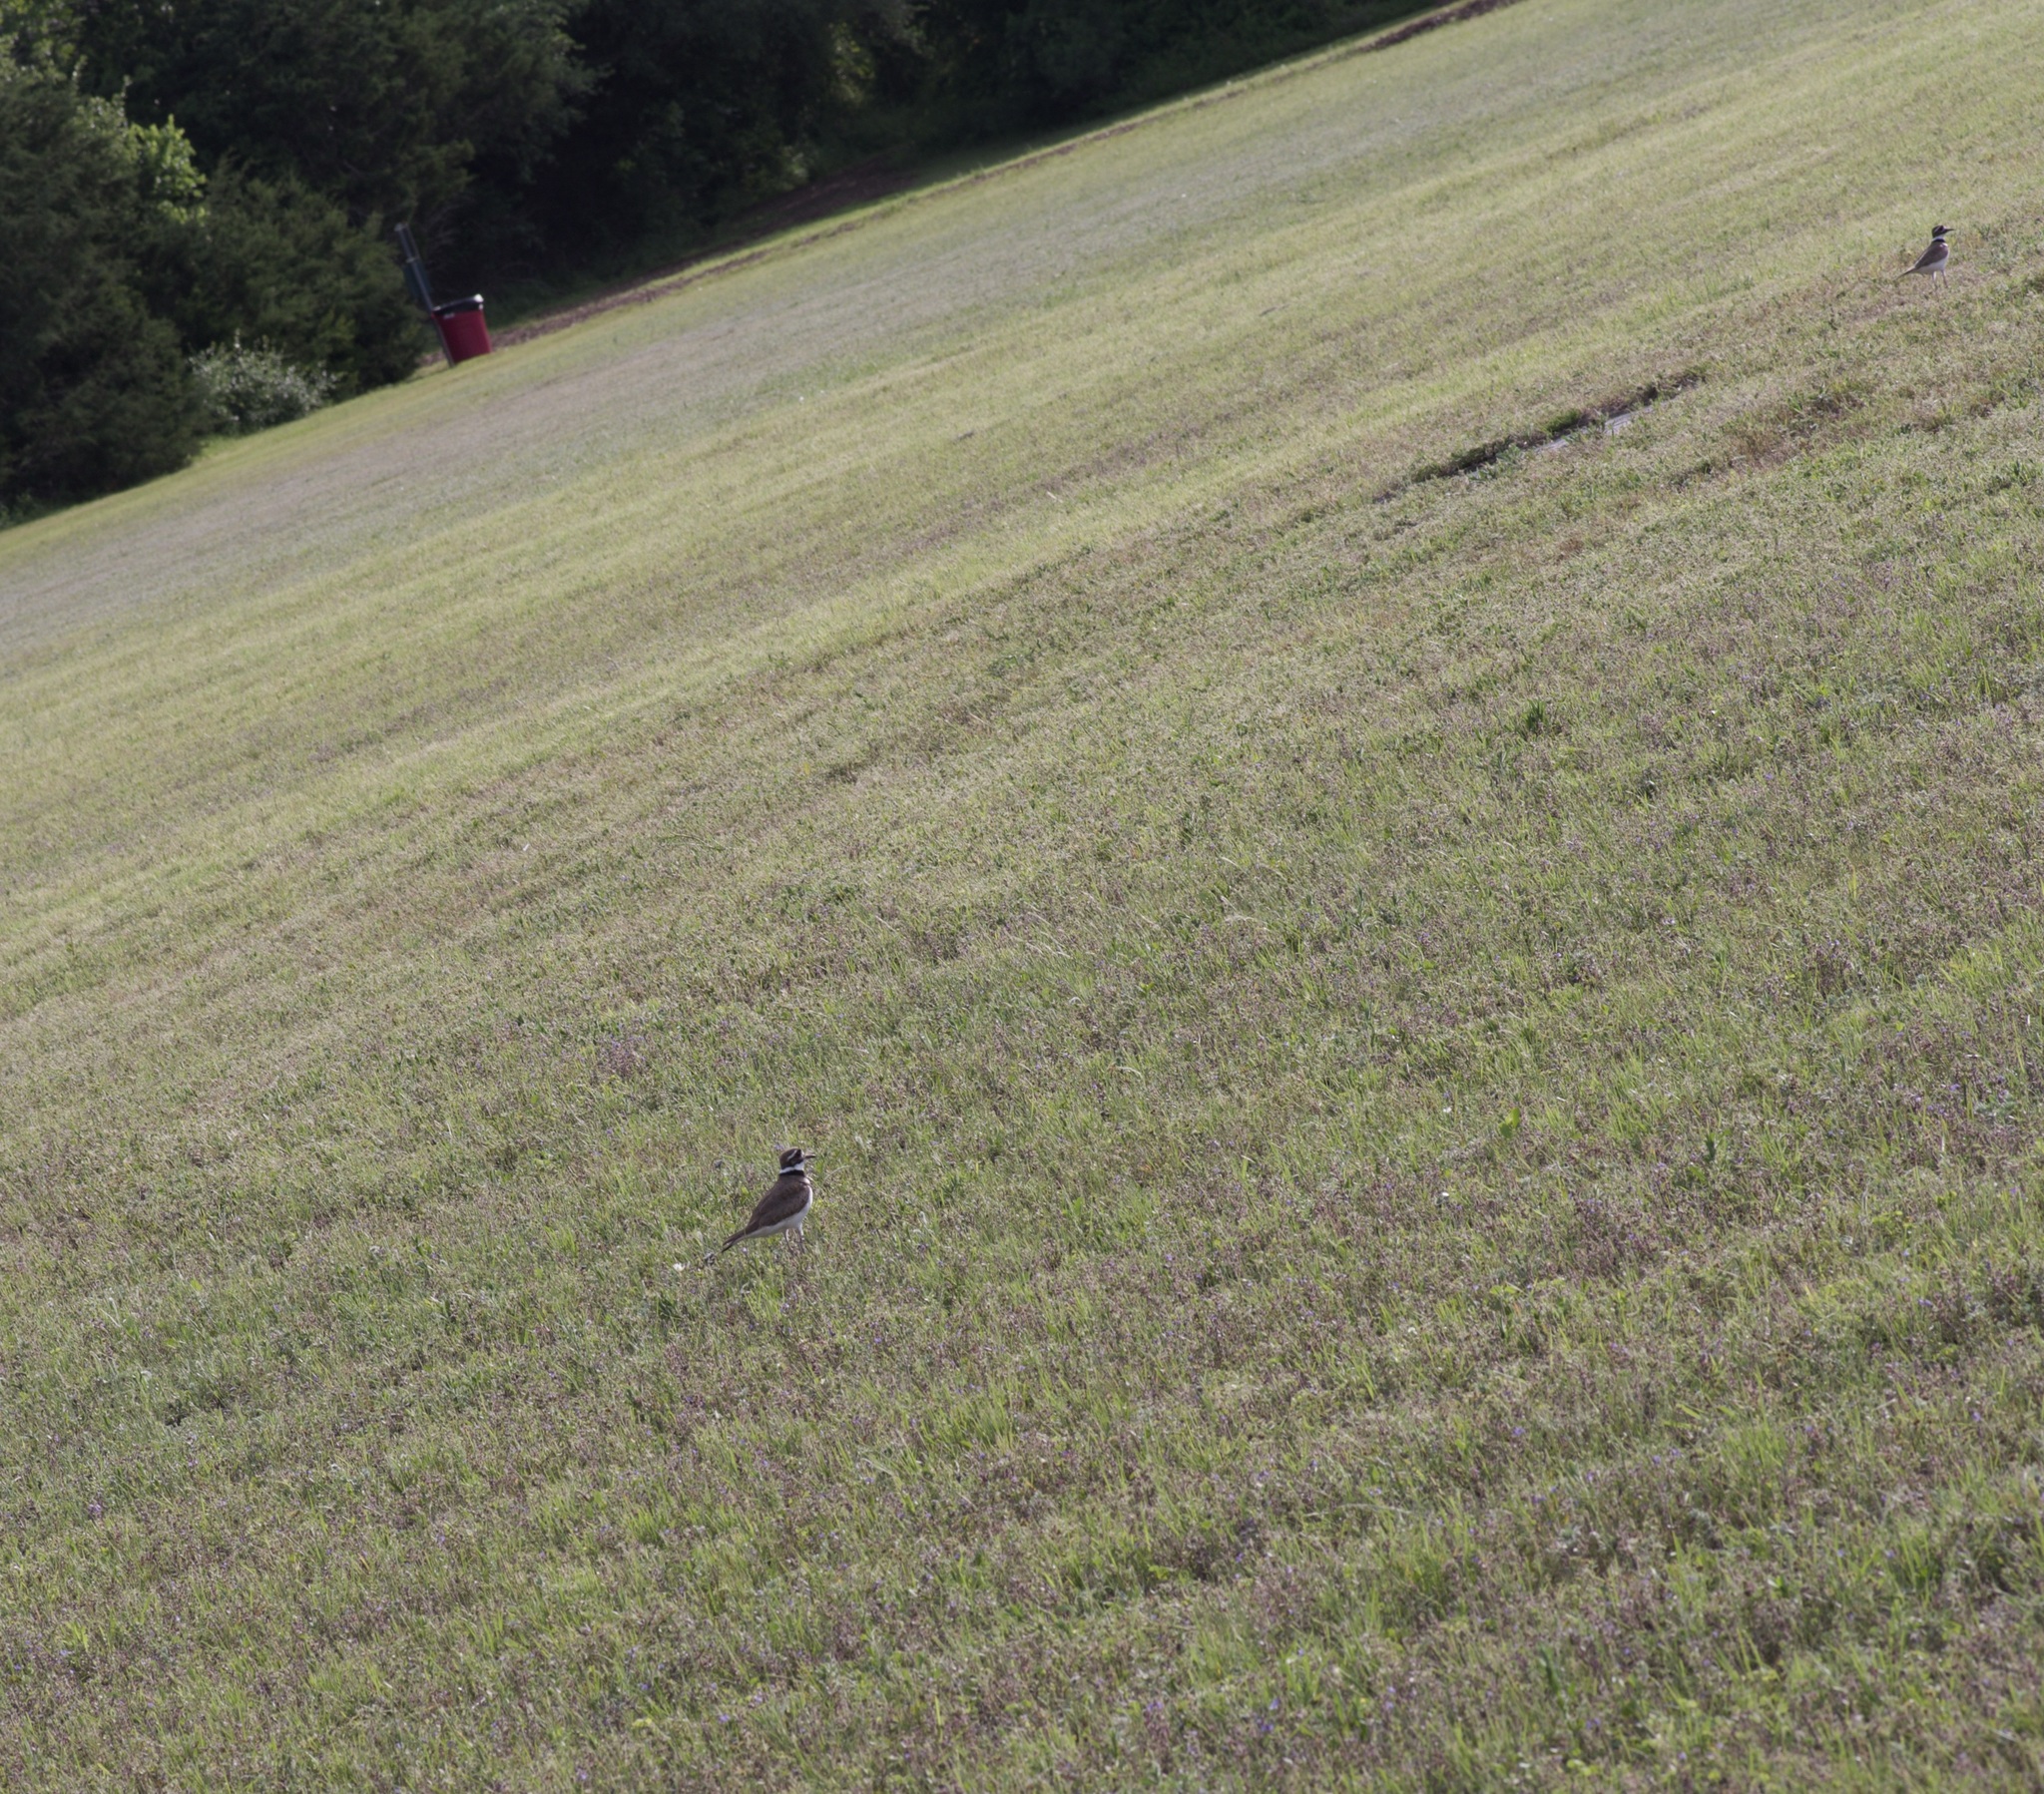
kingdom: Animalia
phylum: Chordata
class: Aves
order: Charadriiformes
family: Charadriidae
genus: Charadrius
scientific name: Charadrius vociferus
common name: Killdeer
